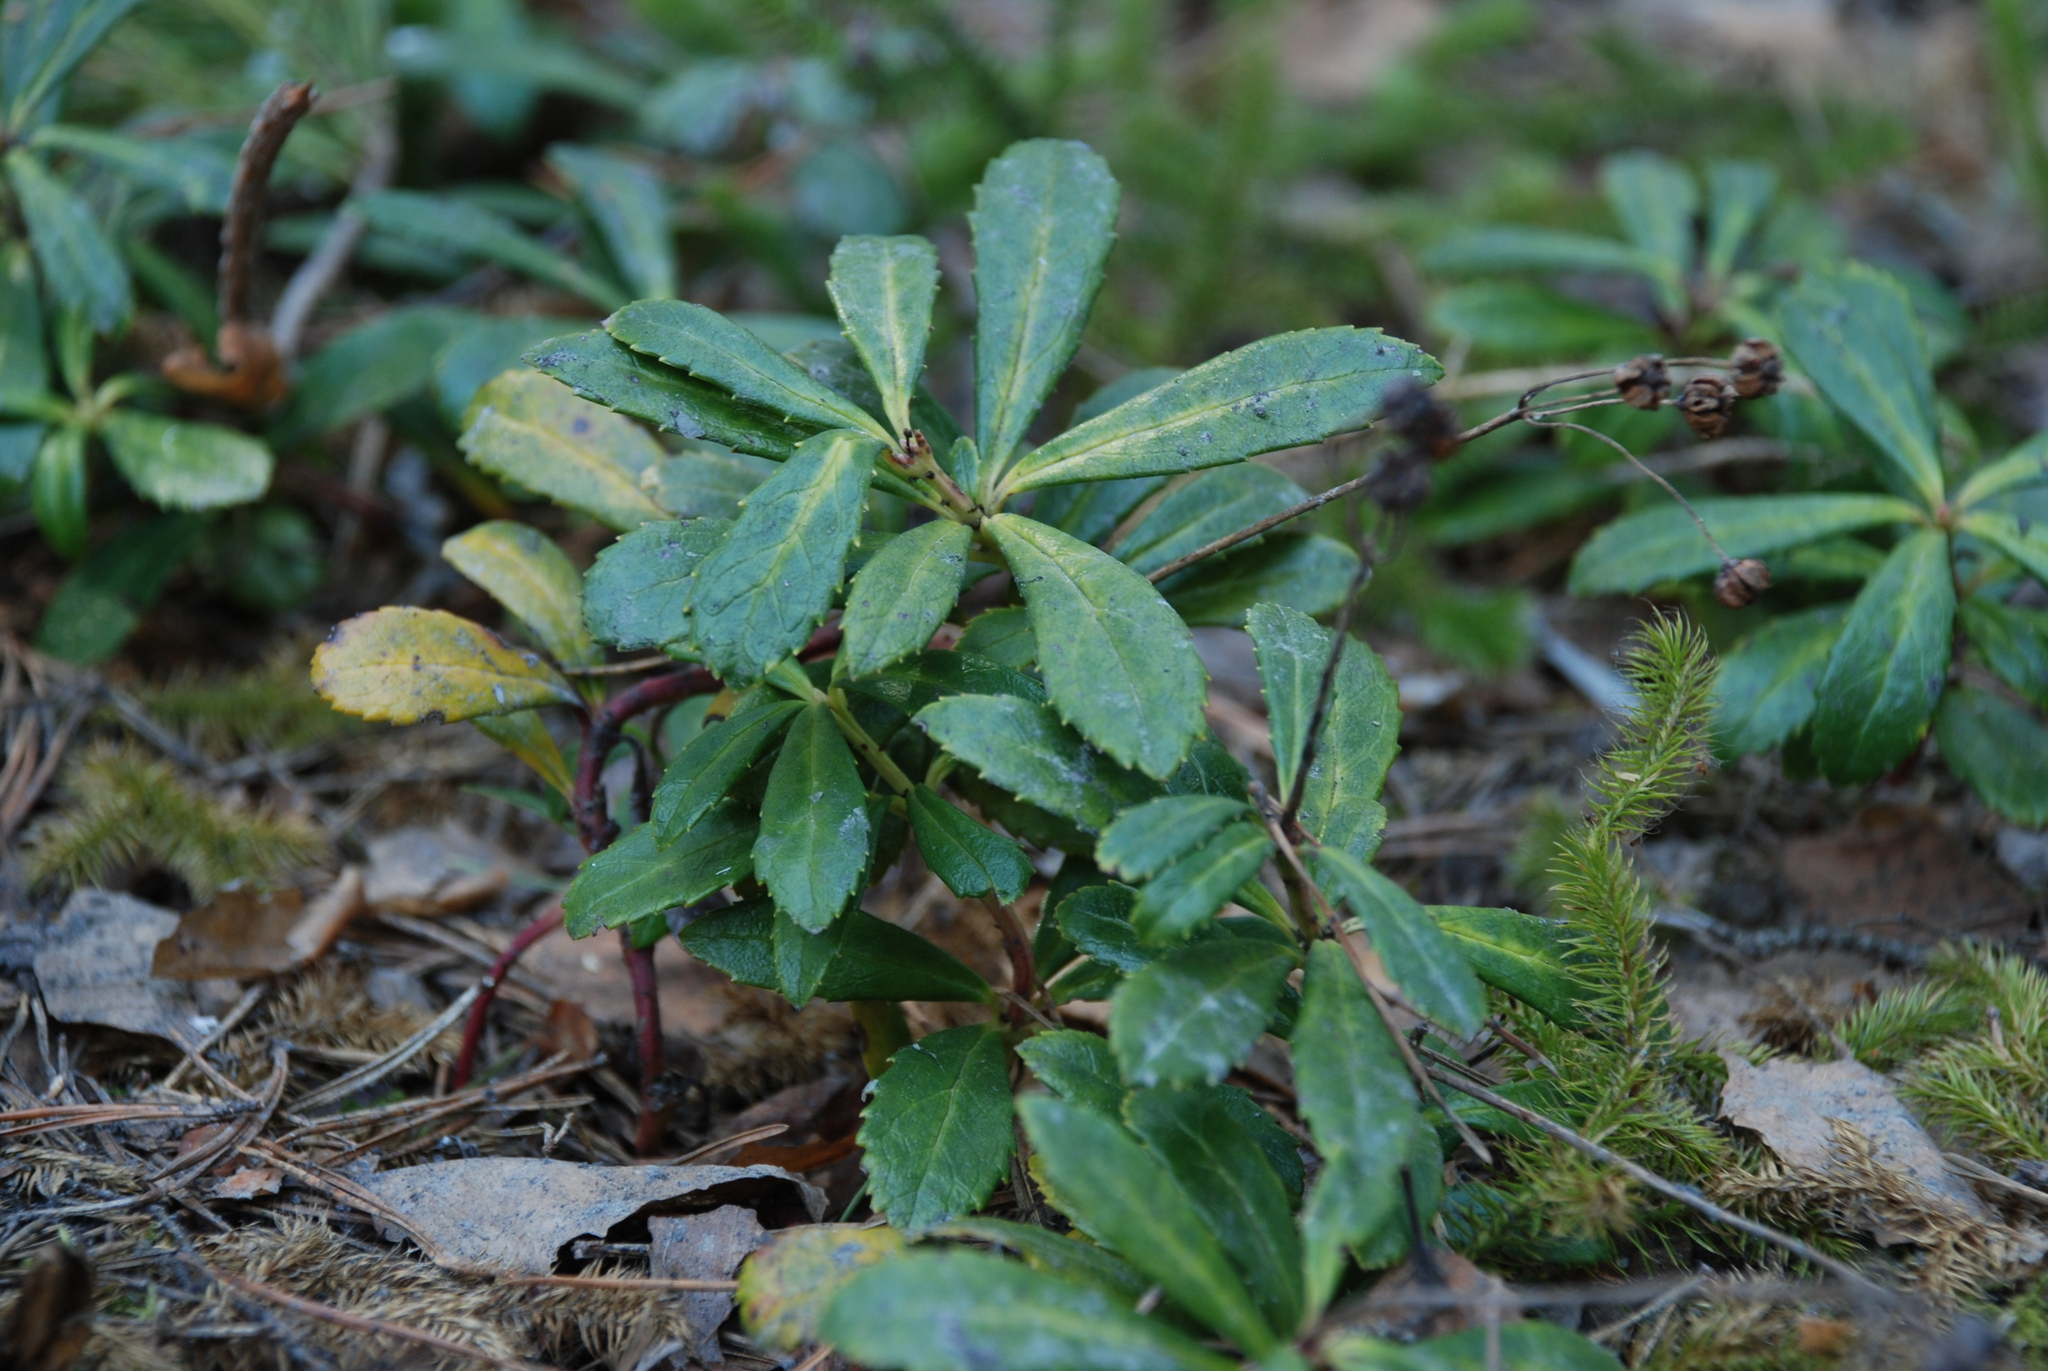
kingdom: Plantae
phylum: Tracheophyta
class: Magnoliopsida
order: Ericales
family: Ericaceae
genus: Chimaphila
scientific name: Chimaphila umbellata
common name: Pipsissewa
